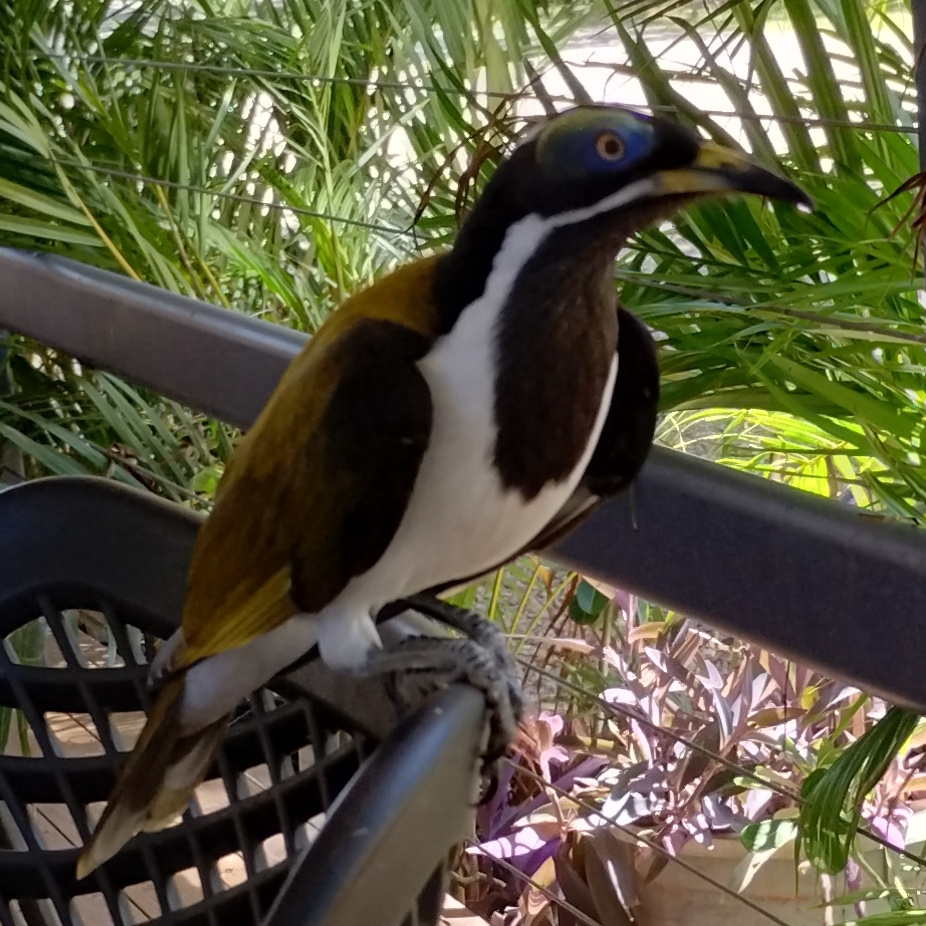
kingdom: Animalia
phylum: Chordata
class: Aves
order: Passeriformes
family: Meliphagidae
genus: Entomyzon
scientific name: Entomyzon cyanotis
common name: Blue-faced honeyeater
